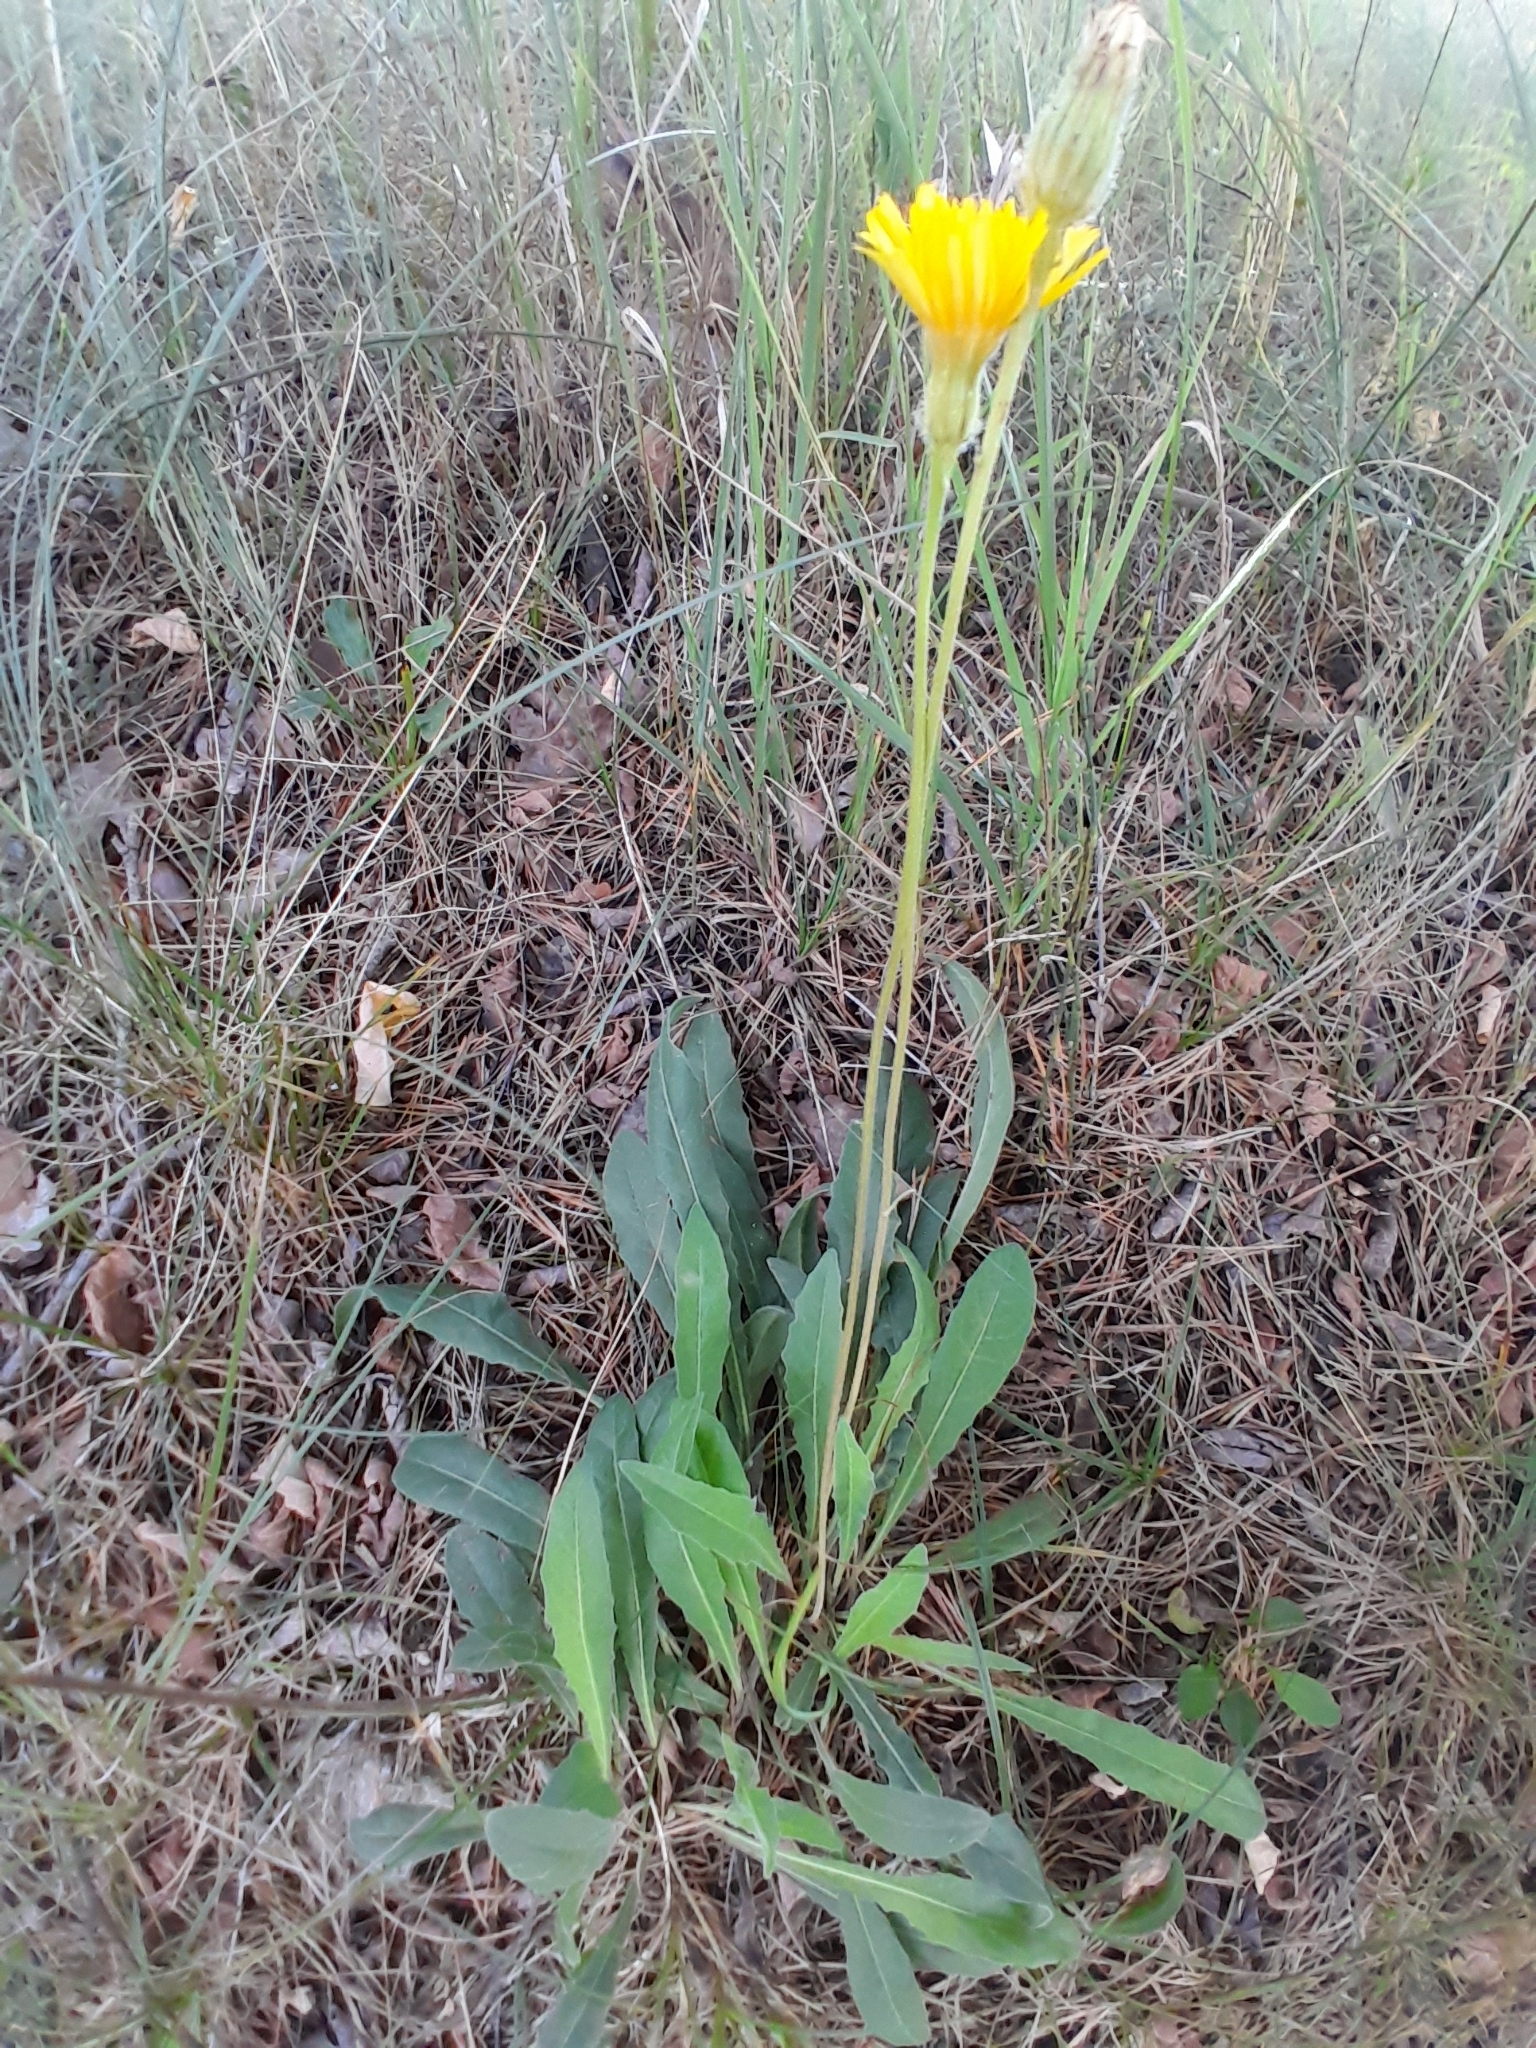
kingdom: Plantae
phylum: Tracheophyta
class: Magnoliopsida
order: Asterales
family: Asteraceae
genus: Leontodon
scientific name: Leontodon hispidus
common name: Rough hawkbit
